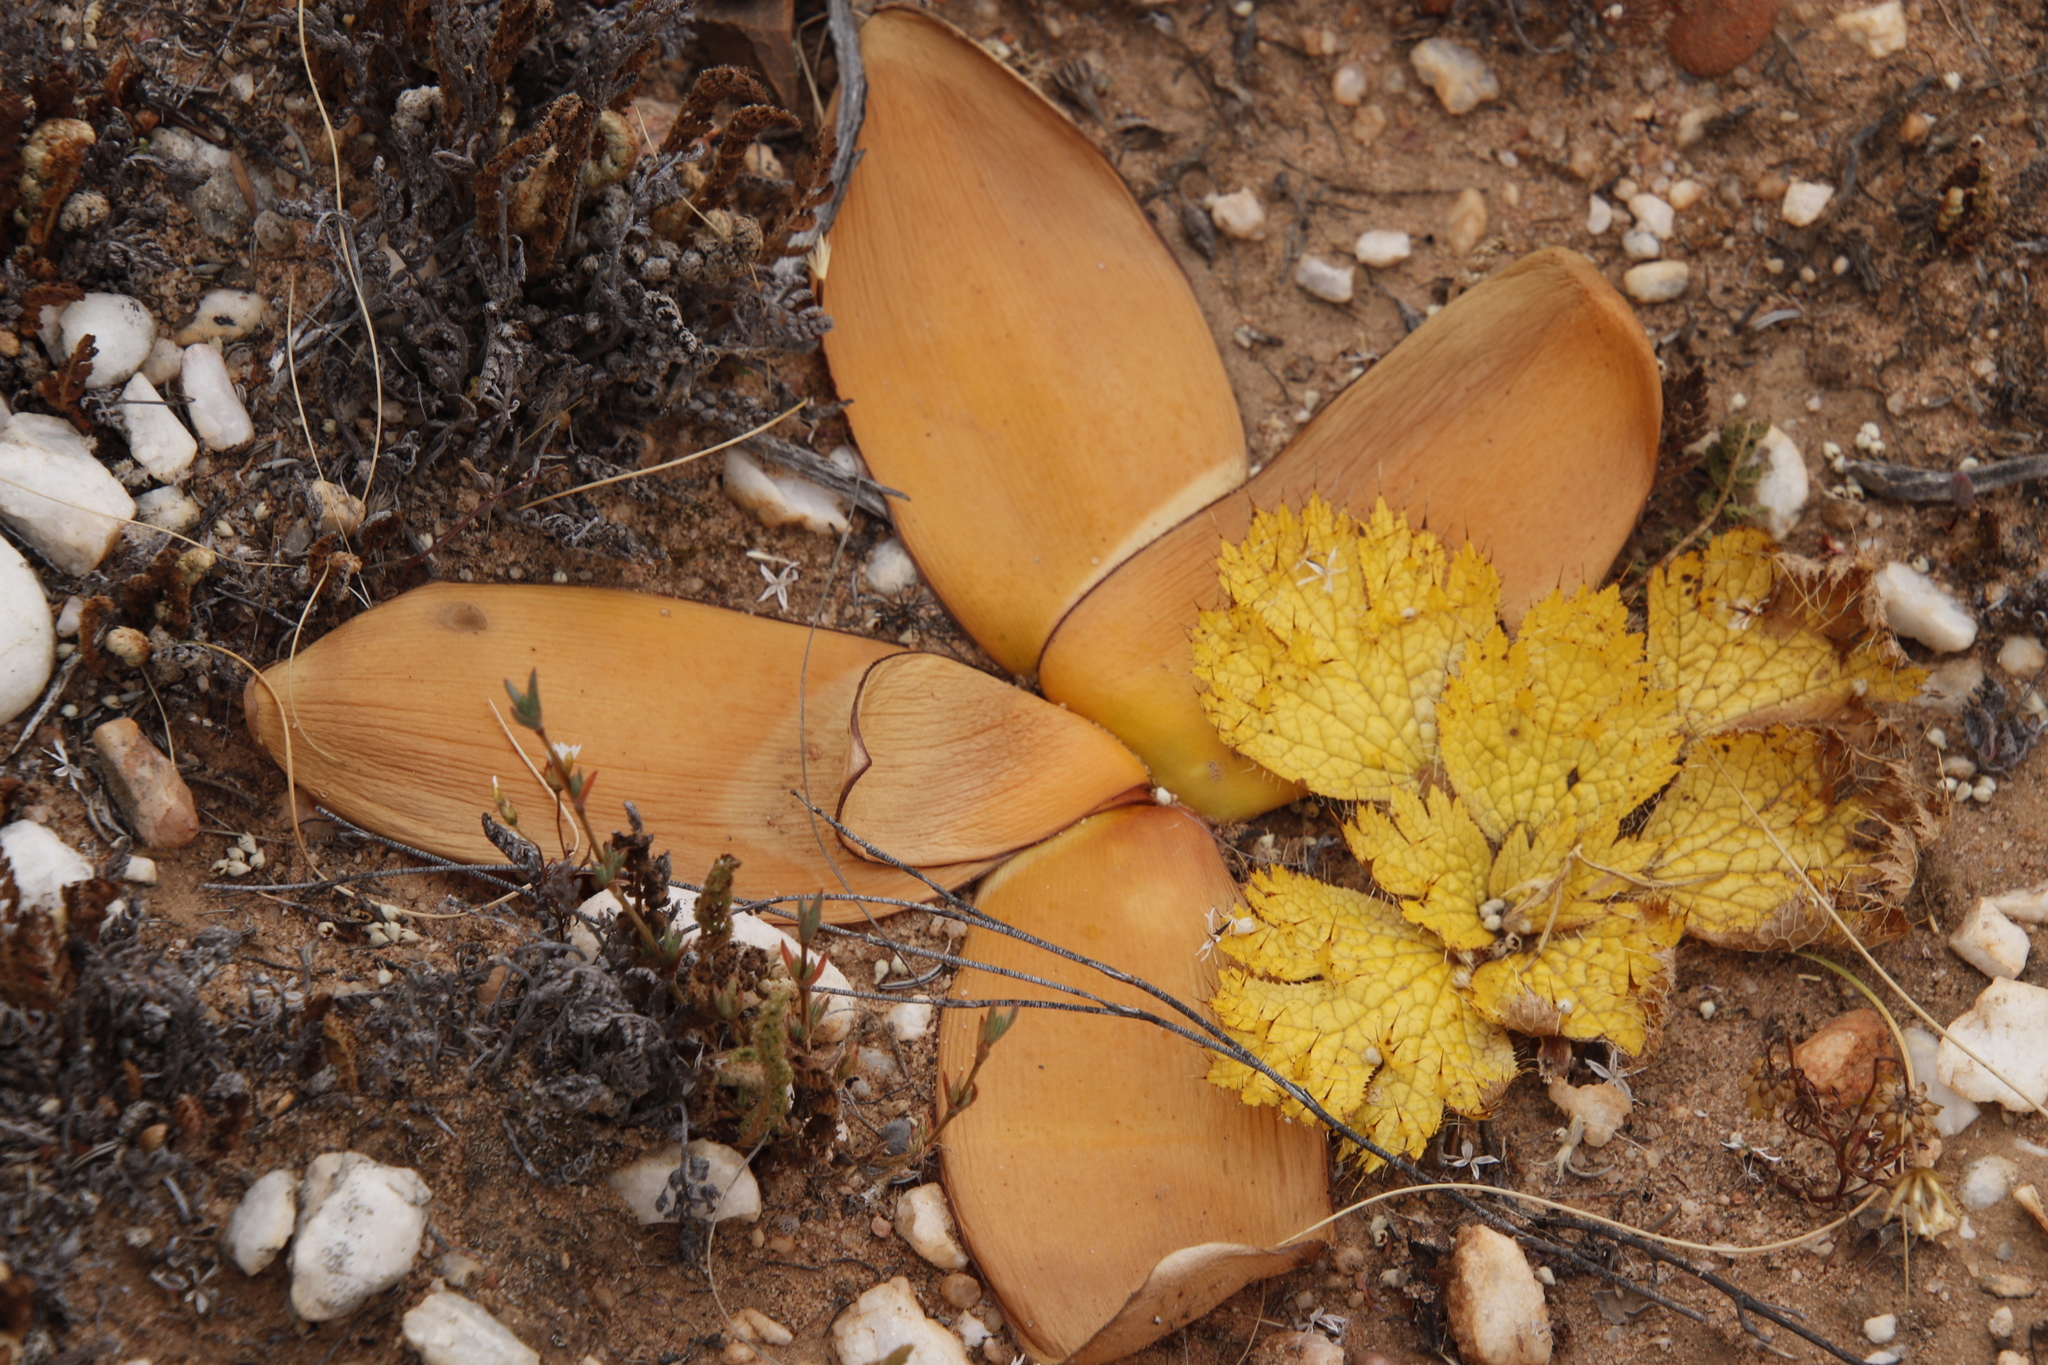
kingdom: Plantae
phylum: Tracheophyta
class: Magnoliopsida
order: Apiales
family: Apiaceae
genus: Arctopus
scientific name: Arctopus echinatus
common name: Platdoring
